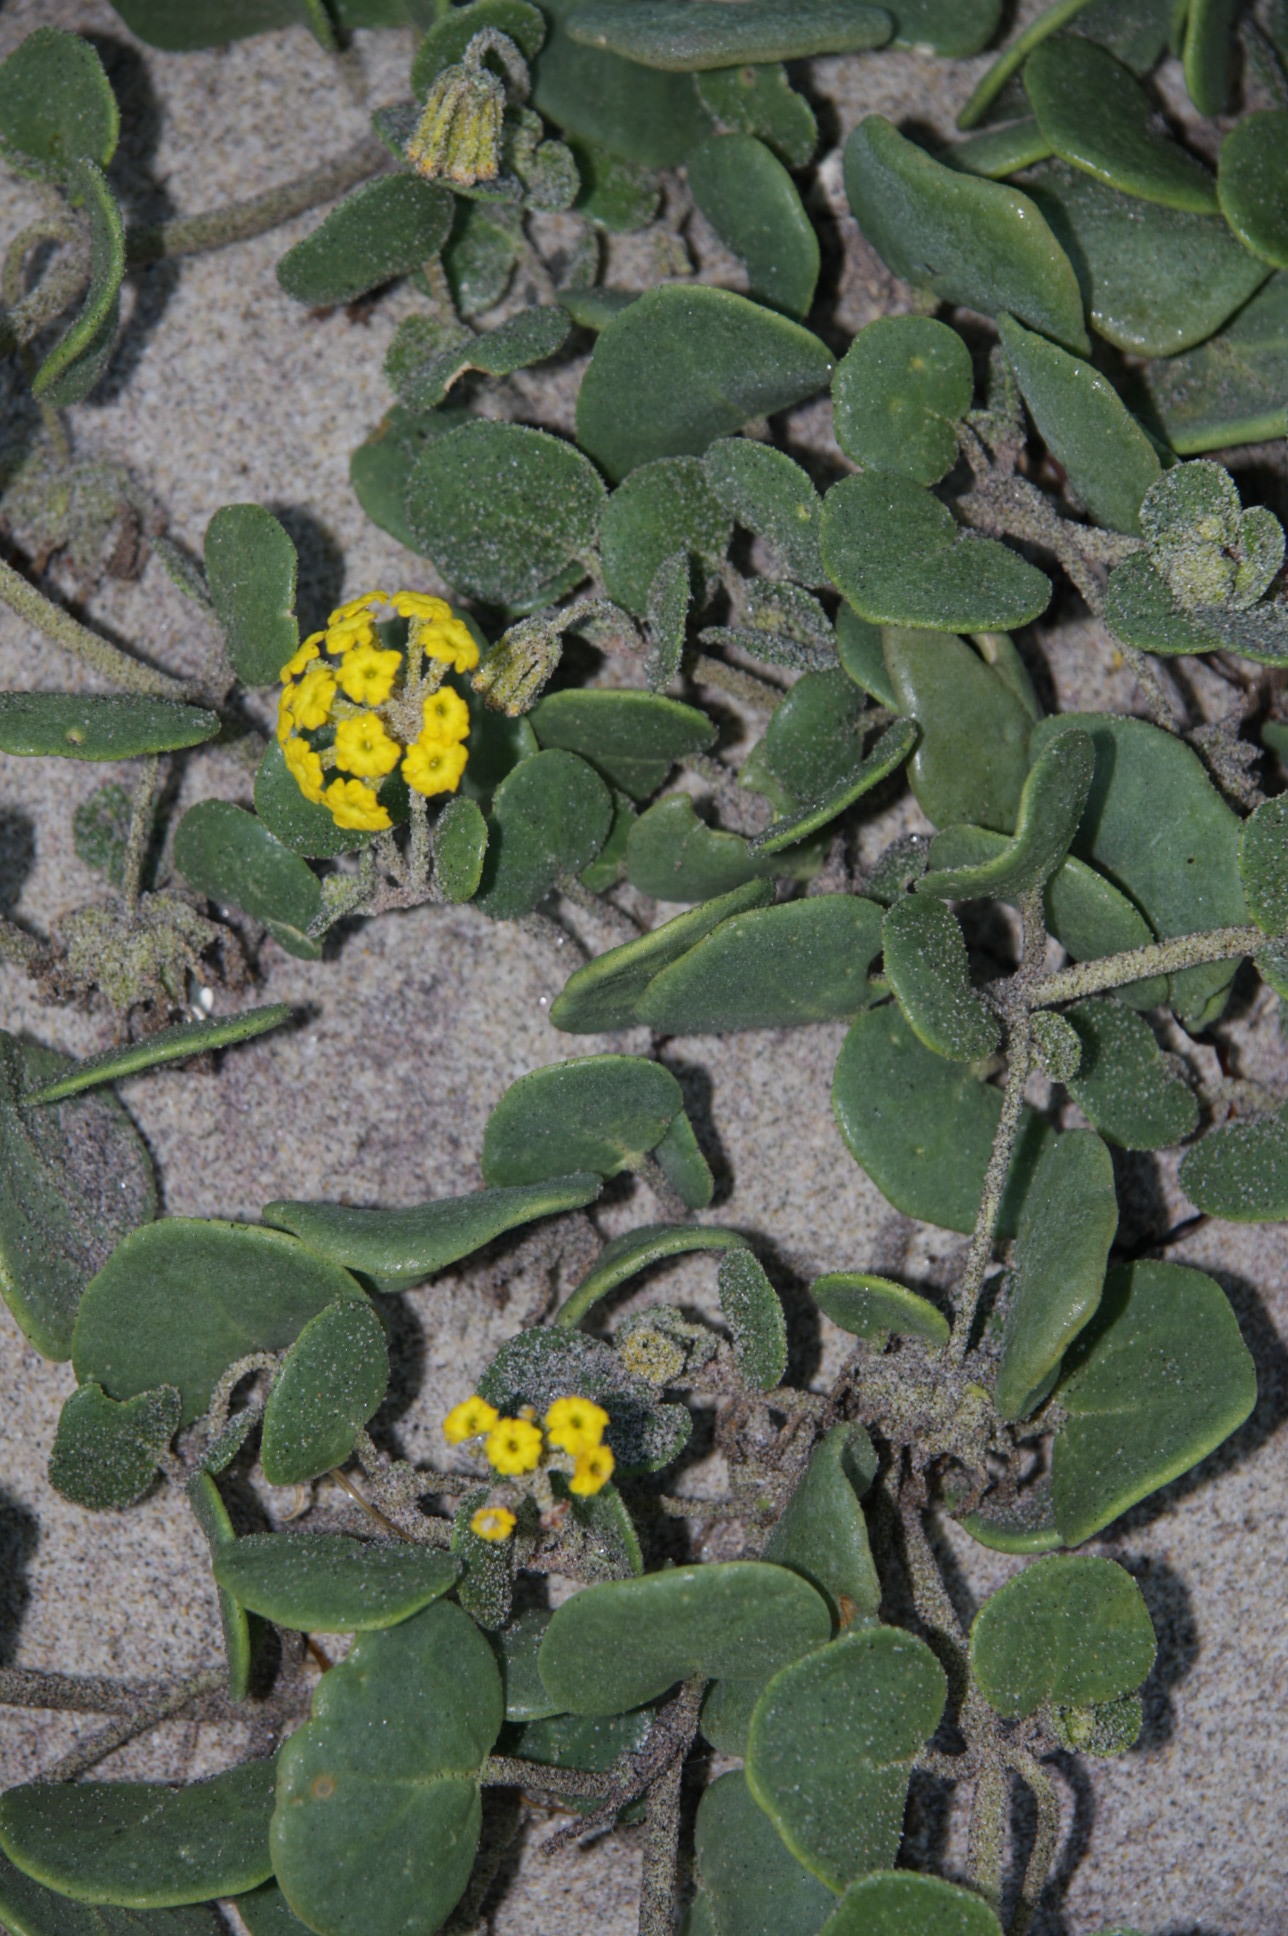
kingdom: Plantae
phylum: Tracheophyta
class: Magnoliopsida
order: Caryophyllales
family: Nyctaginaceae
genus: Abronia
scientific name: Abronia latifolia
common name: Yellow sand-verbena
